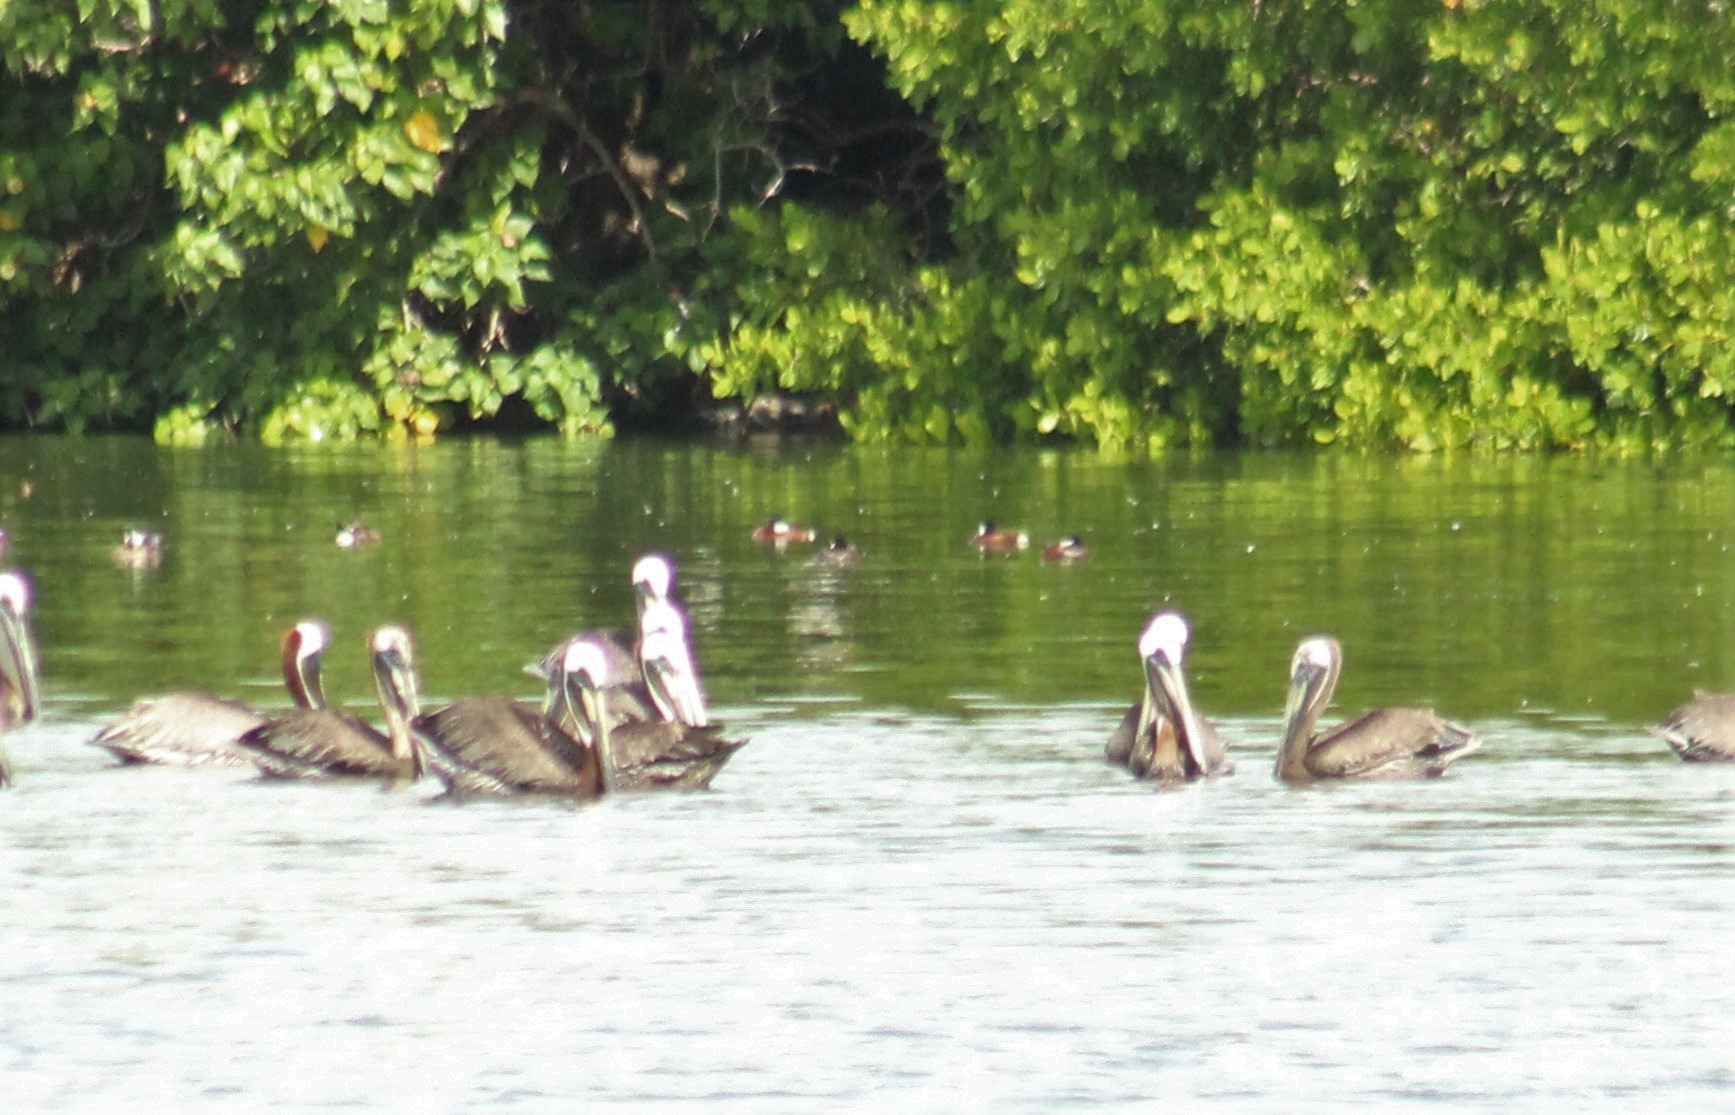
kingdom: Animalia
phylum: Chordata
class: Aves
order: Anseriformes
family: Anatidae
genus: Oxyura
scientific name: Oxyura jamaicensis
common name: Ruddy duck
